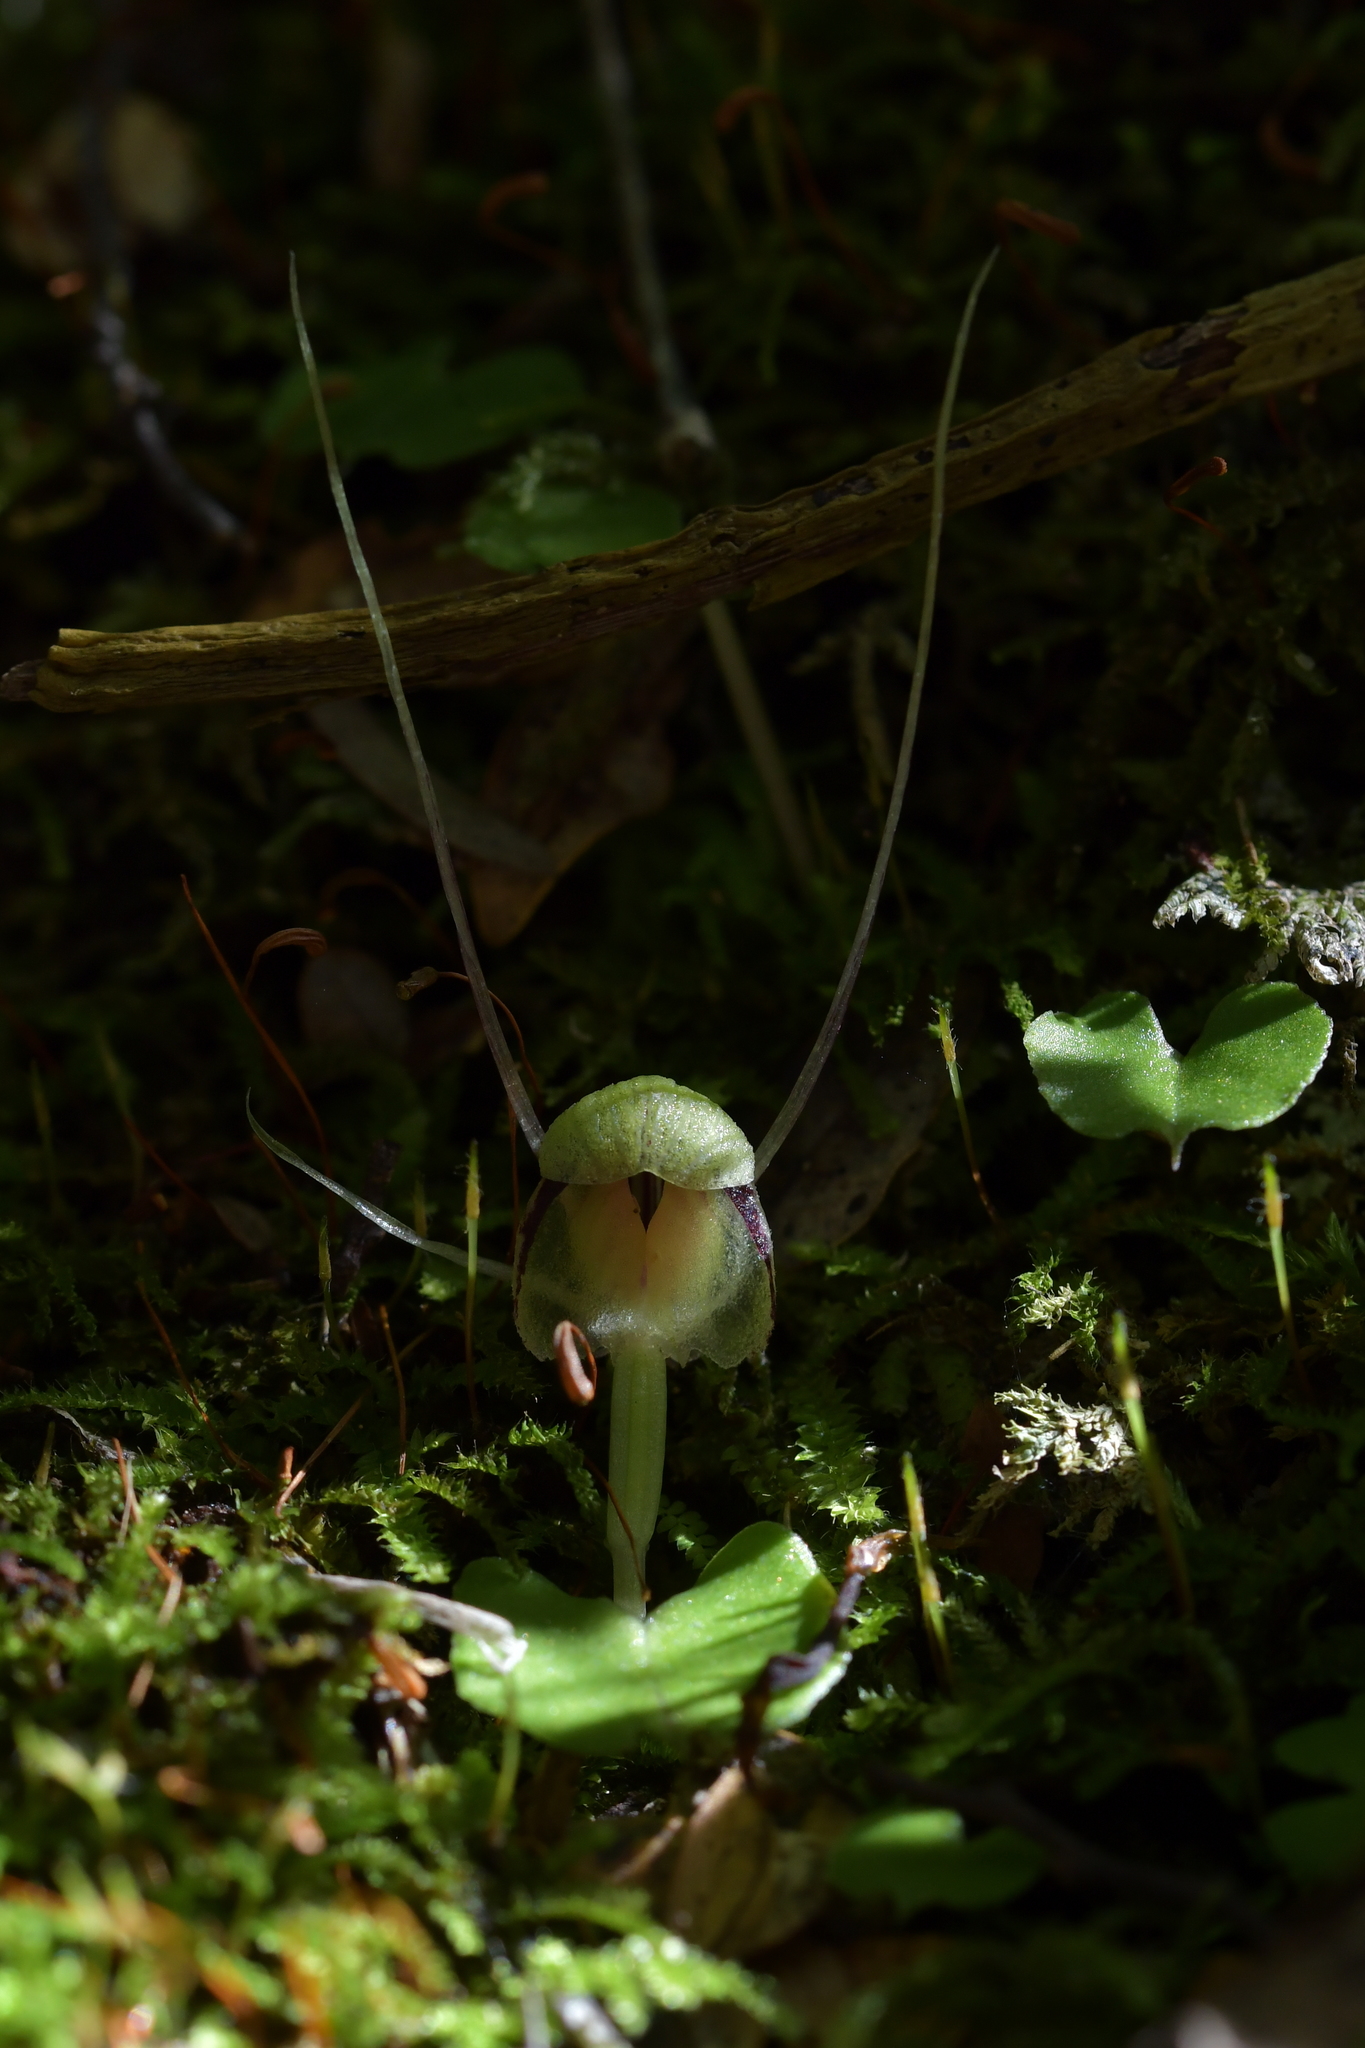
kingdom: Plantae
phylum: Tracheophyta
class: Liliopsida
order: Asparagales
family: Orchidaceae
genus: Corybas
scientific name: Corybas vitreus
